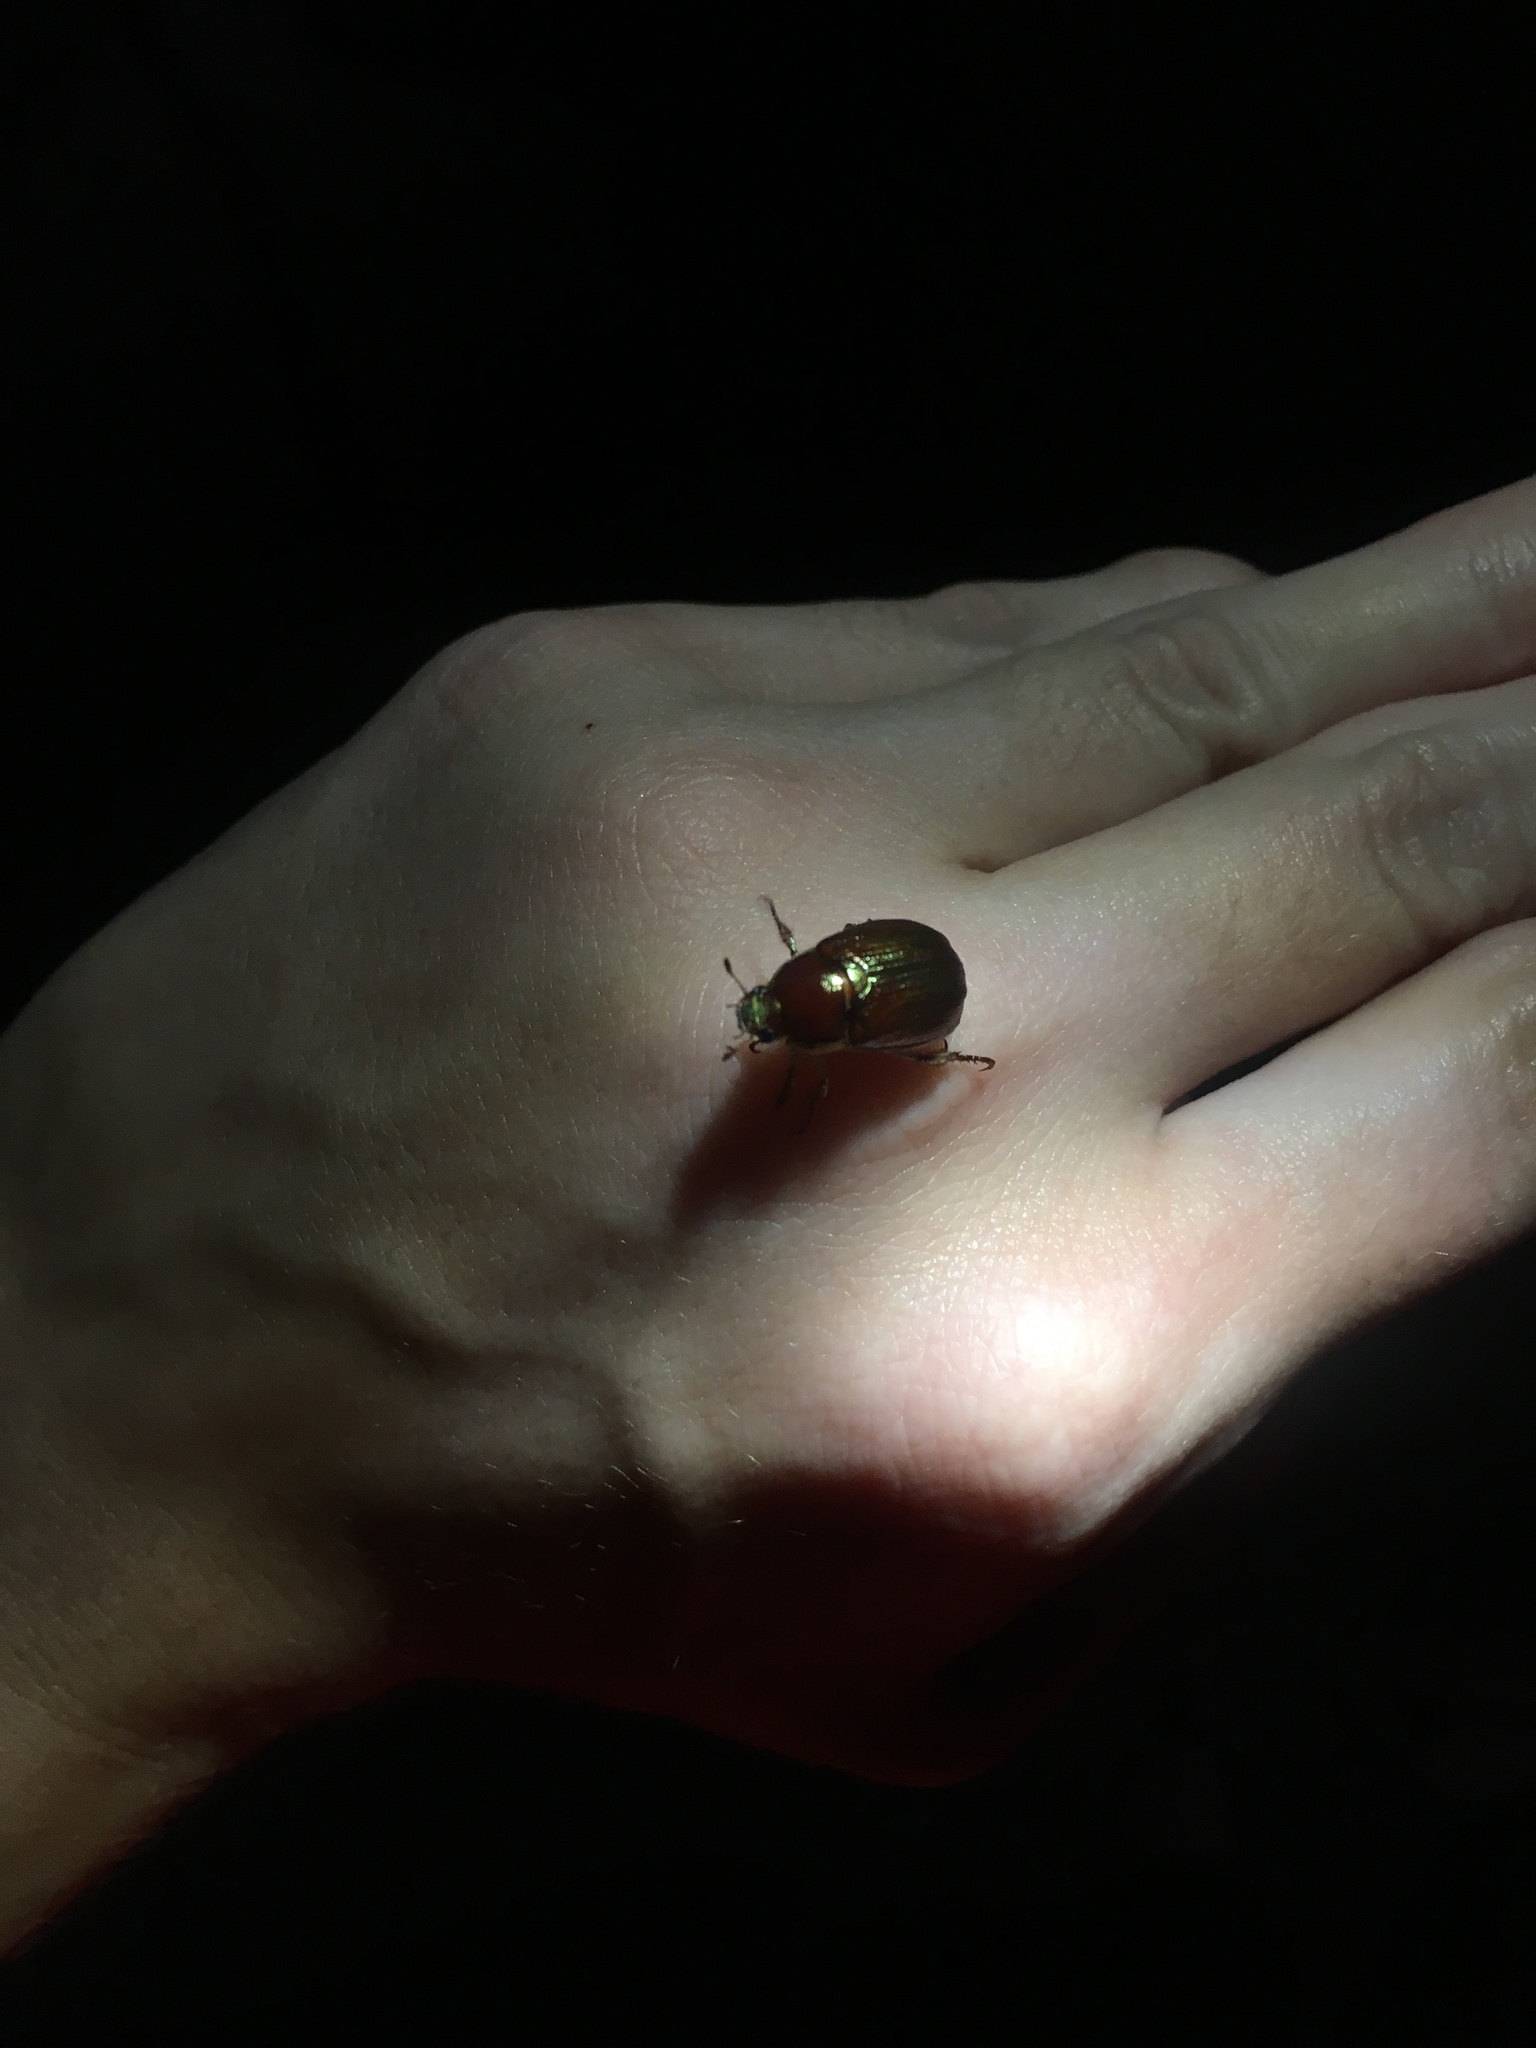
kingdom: Animalia
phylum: Arthropoda
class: Insecta
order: Coleoptera
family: Scarabaeidae
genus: Callistethus
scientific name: Callistethus marginatus
